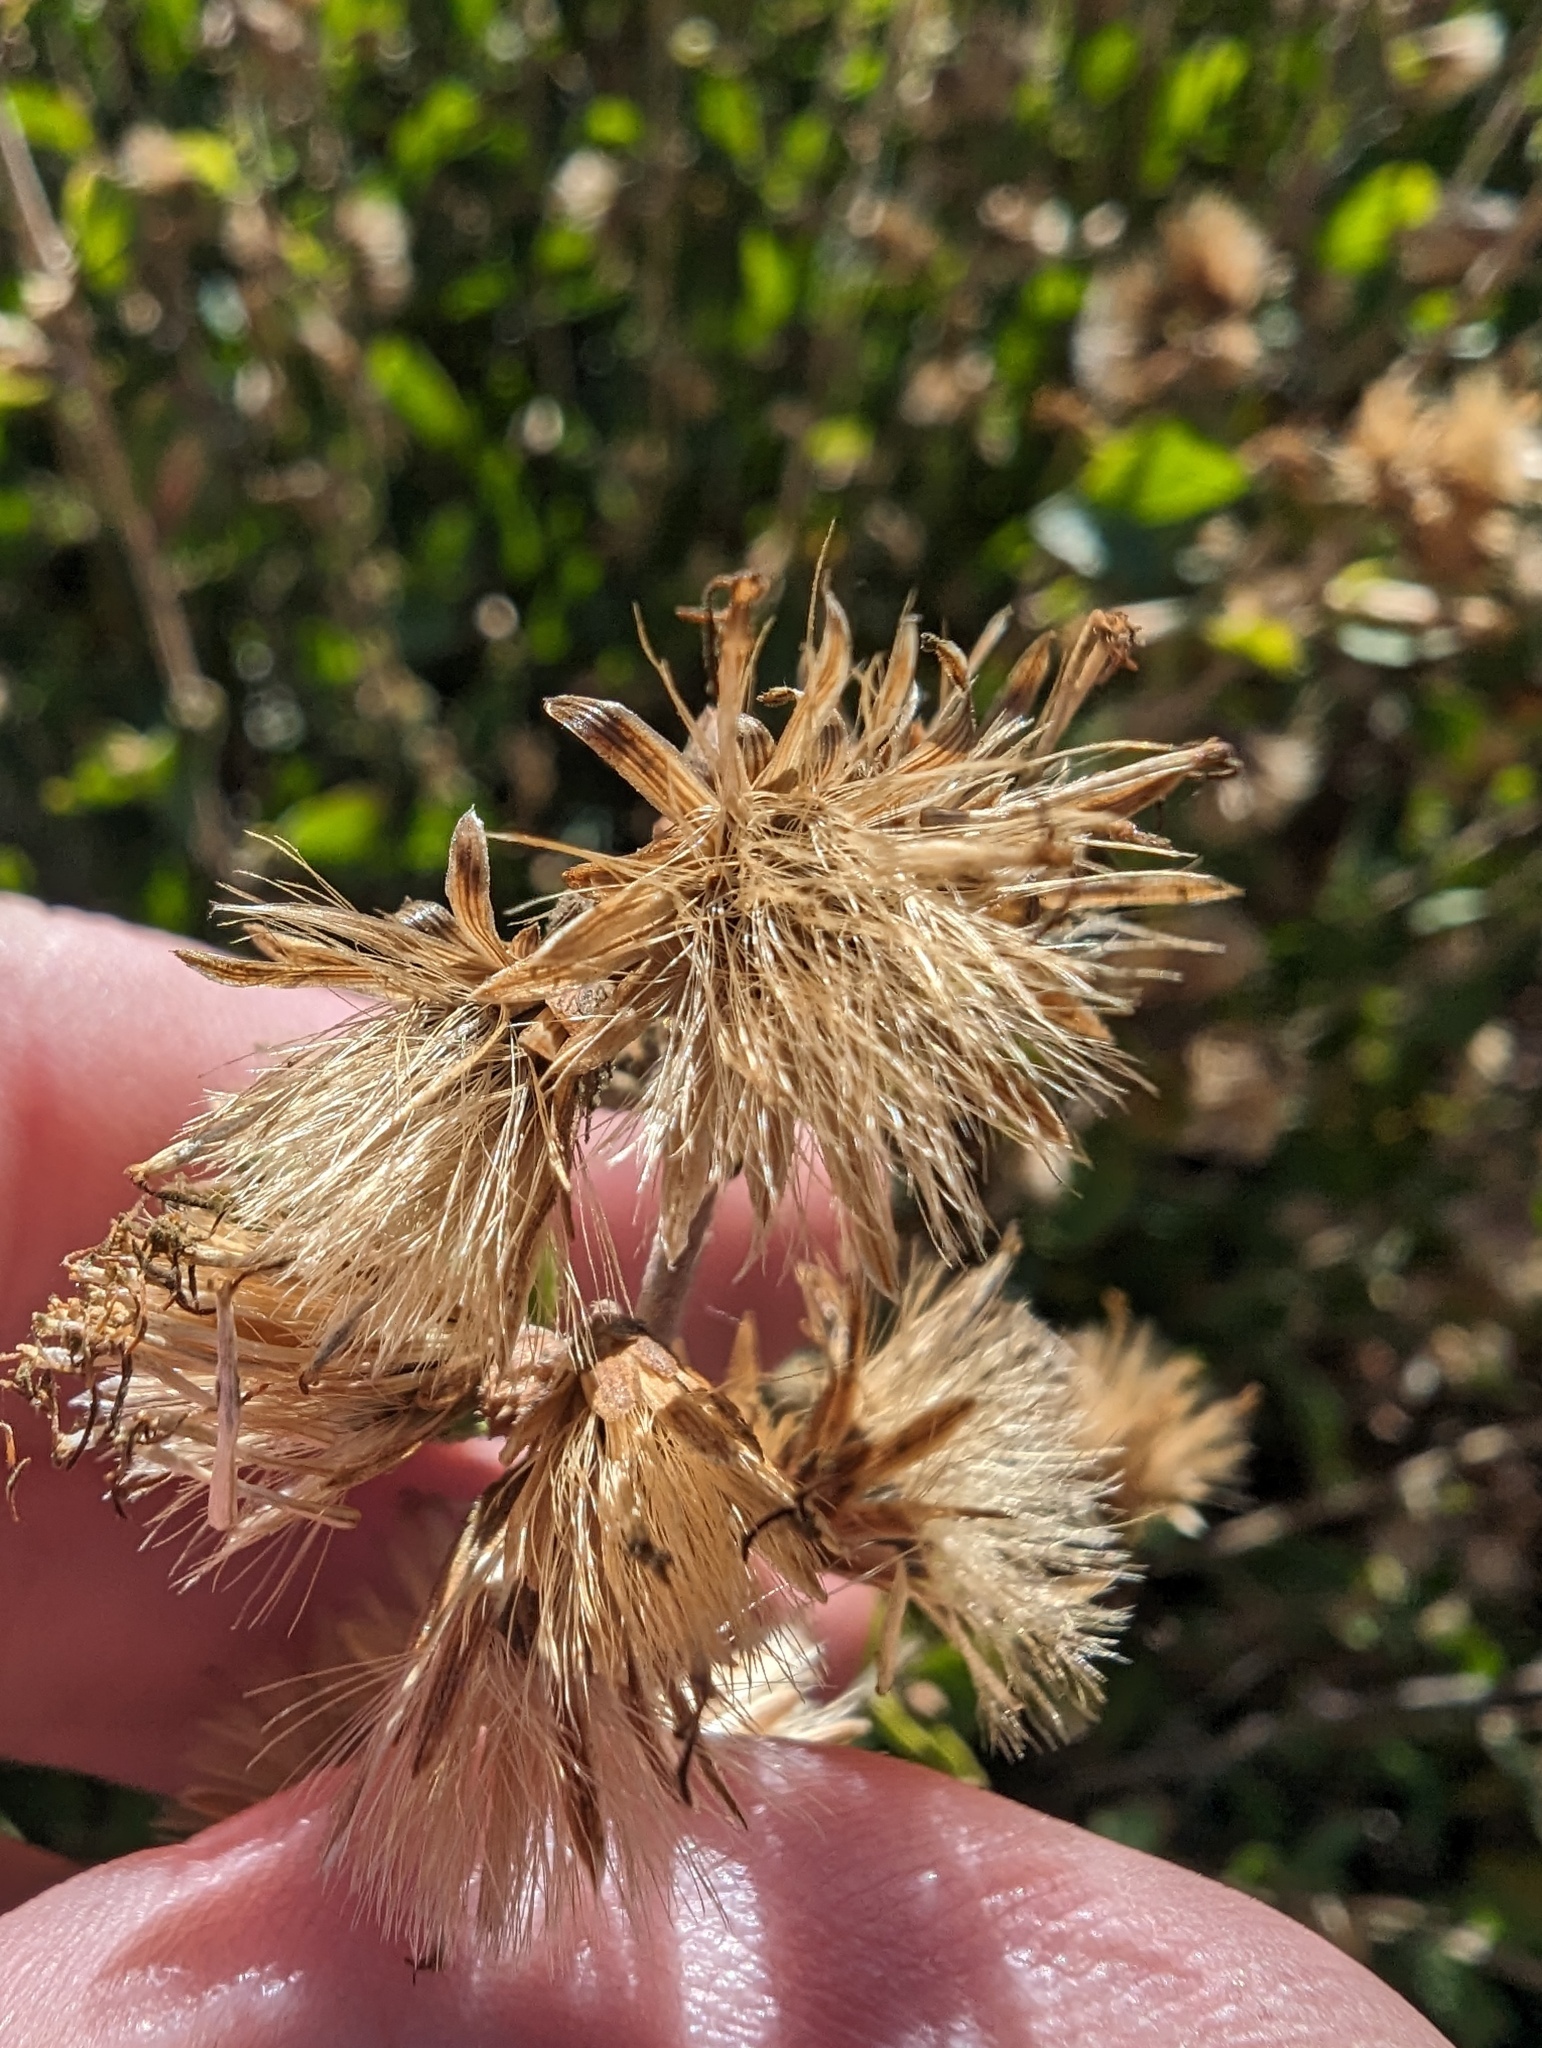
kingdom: Plantae
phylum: Tracheophyta
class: Magnoliopsida
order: Asterales
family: Asteraceae
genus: Brickellia
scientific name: Brickellia californica
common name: California brickellbush
